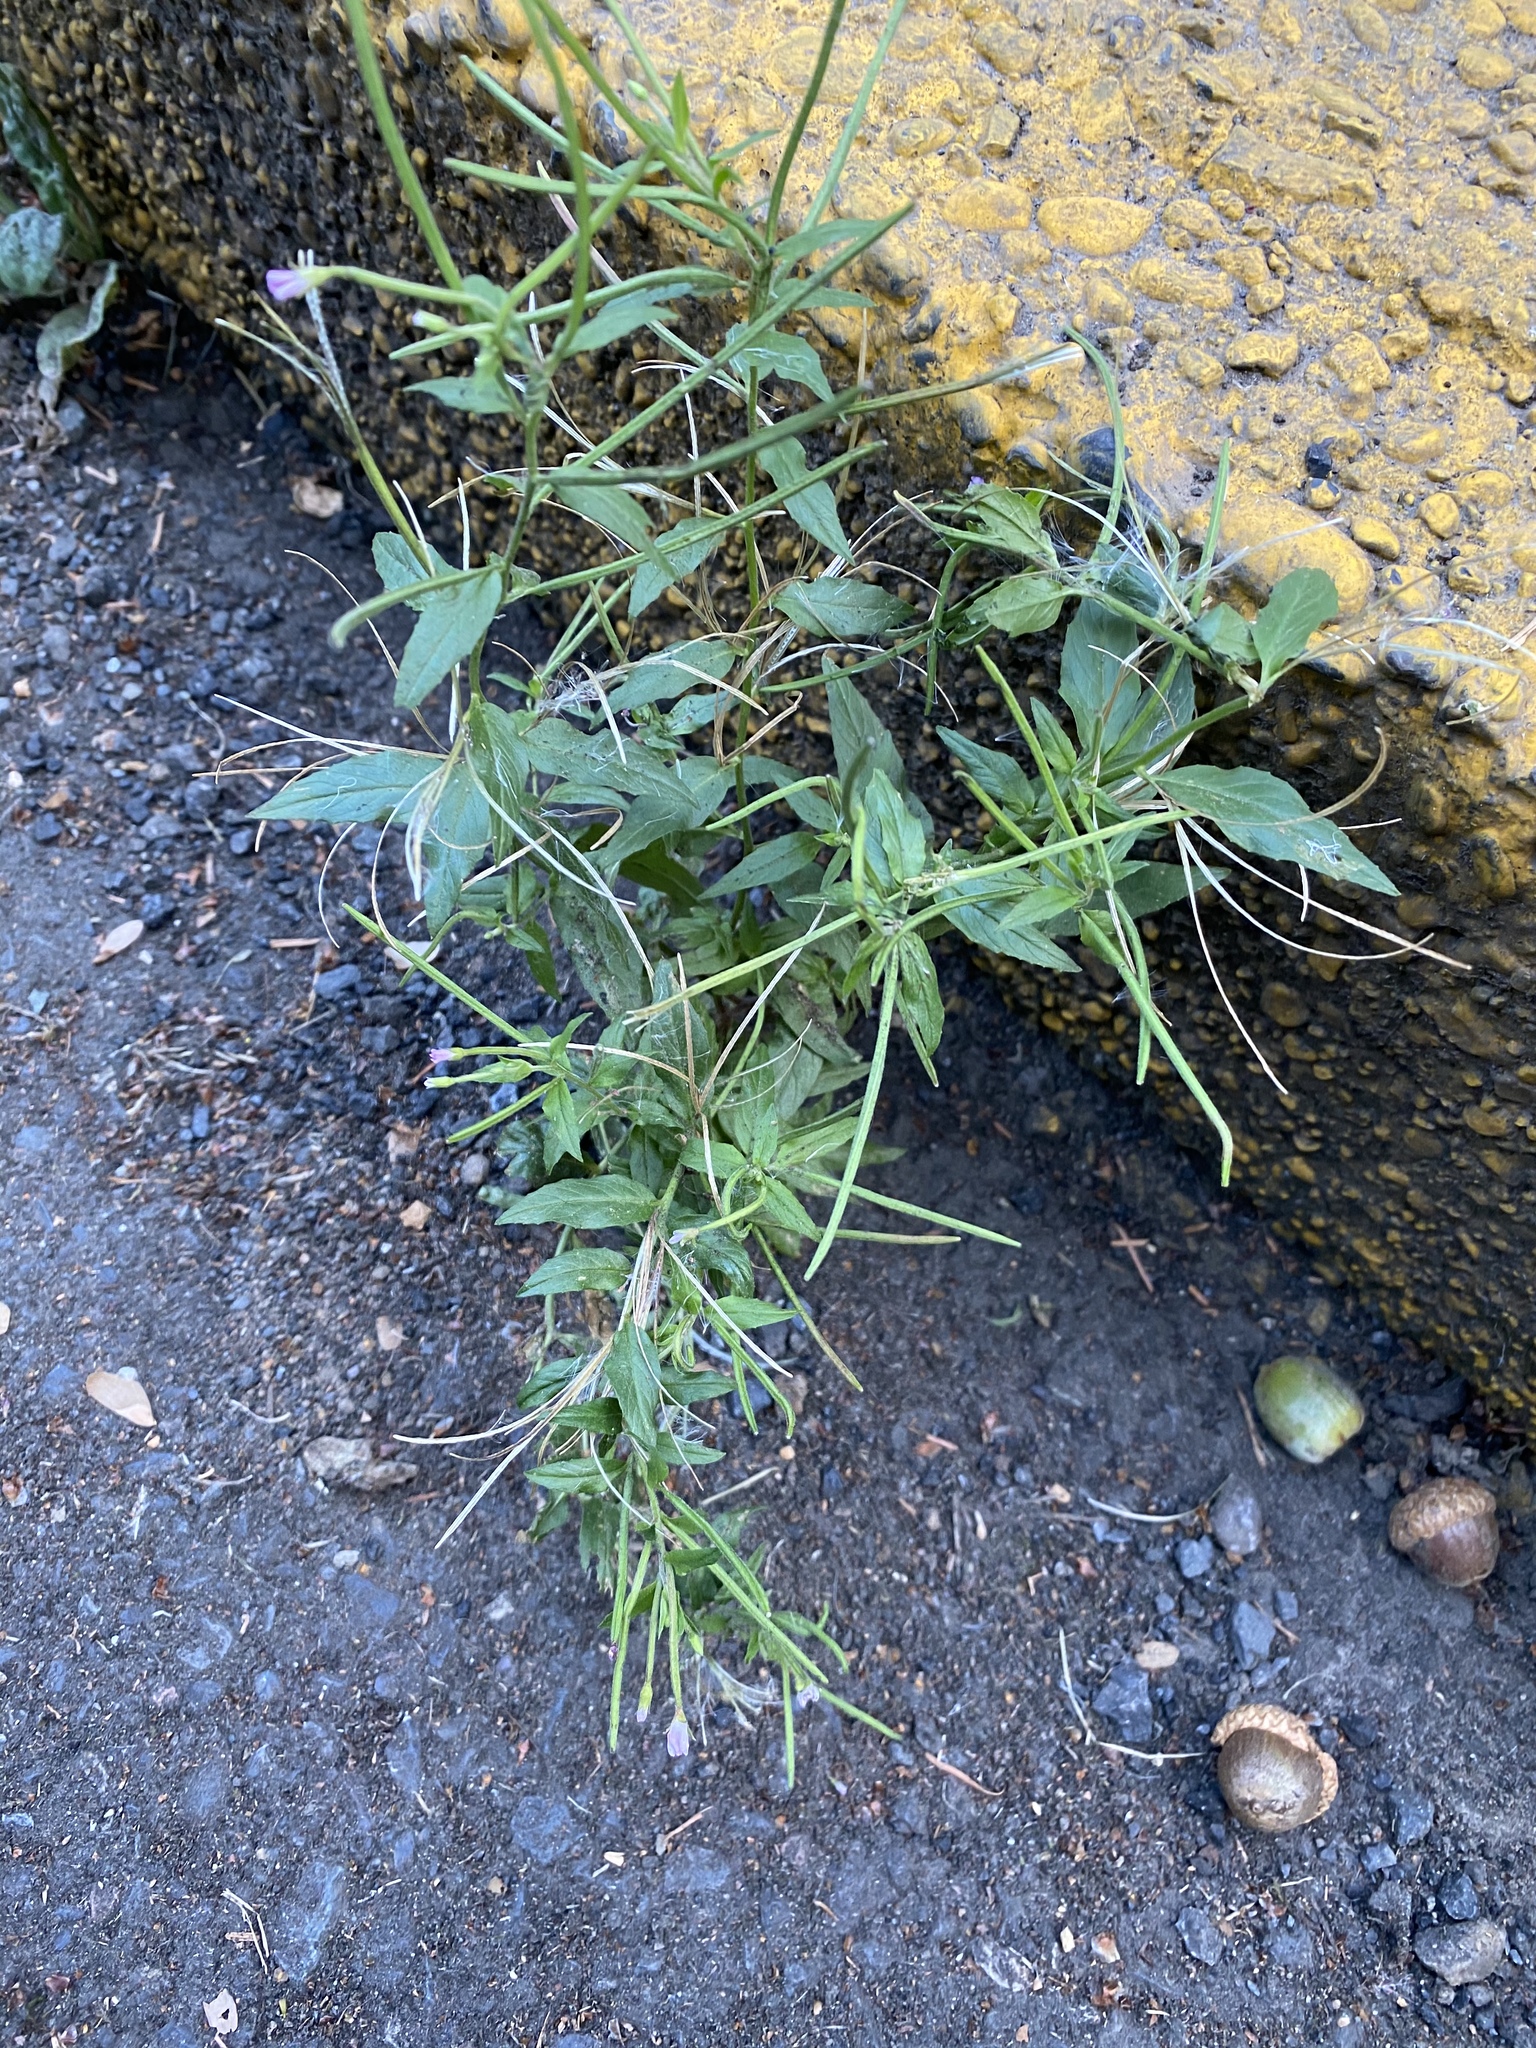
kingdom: Plantae
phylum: Tracheophyta
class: Magnoliopsida
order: Myrtales
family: Onagraceae
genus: Epilobium
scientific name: Epilobium ciliatum
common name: American willowherb
